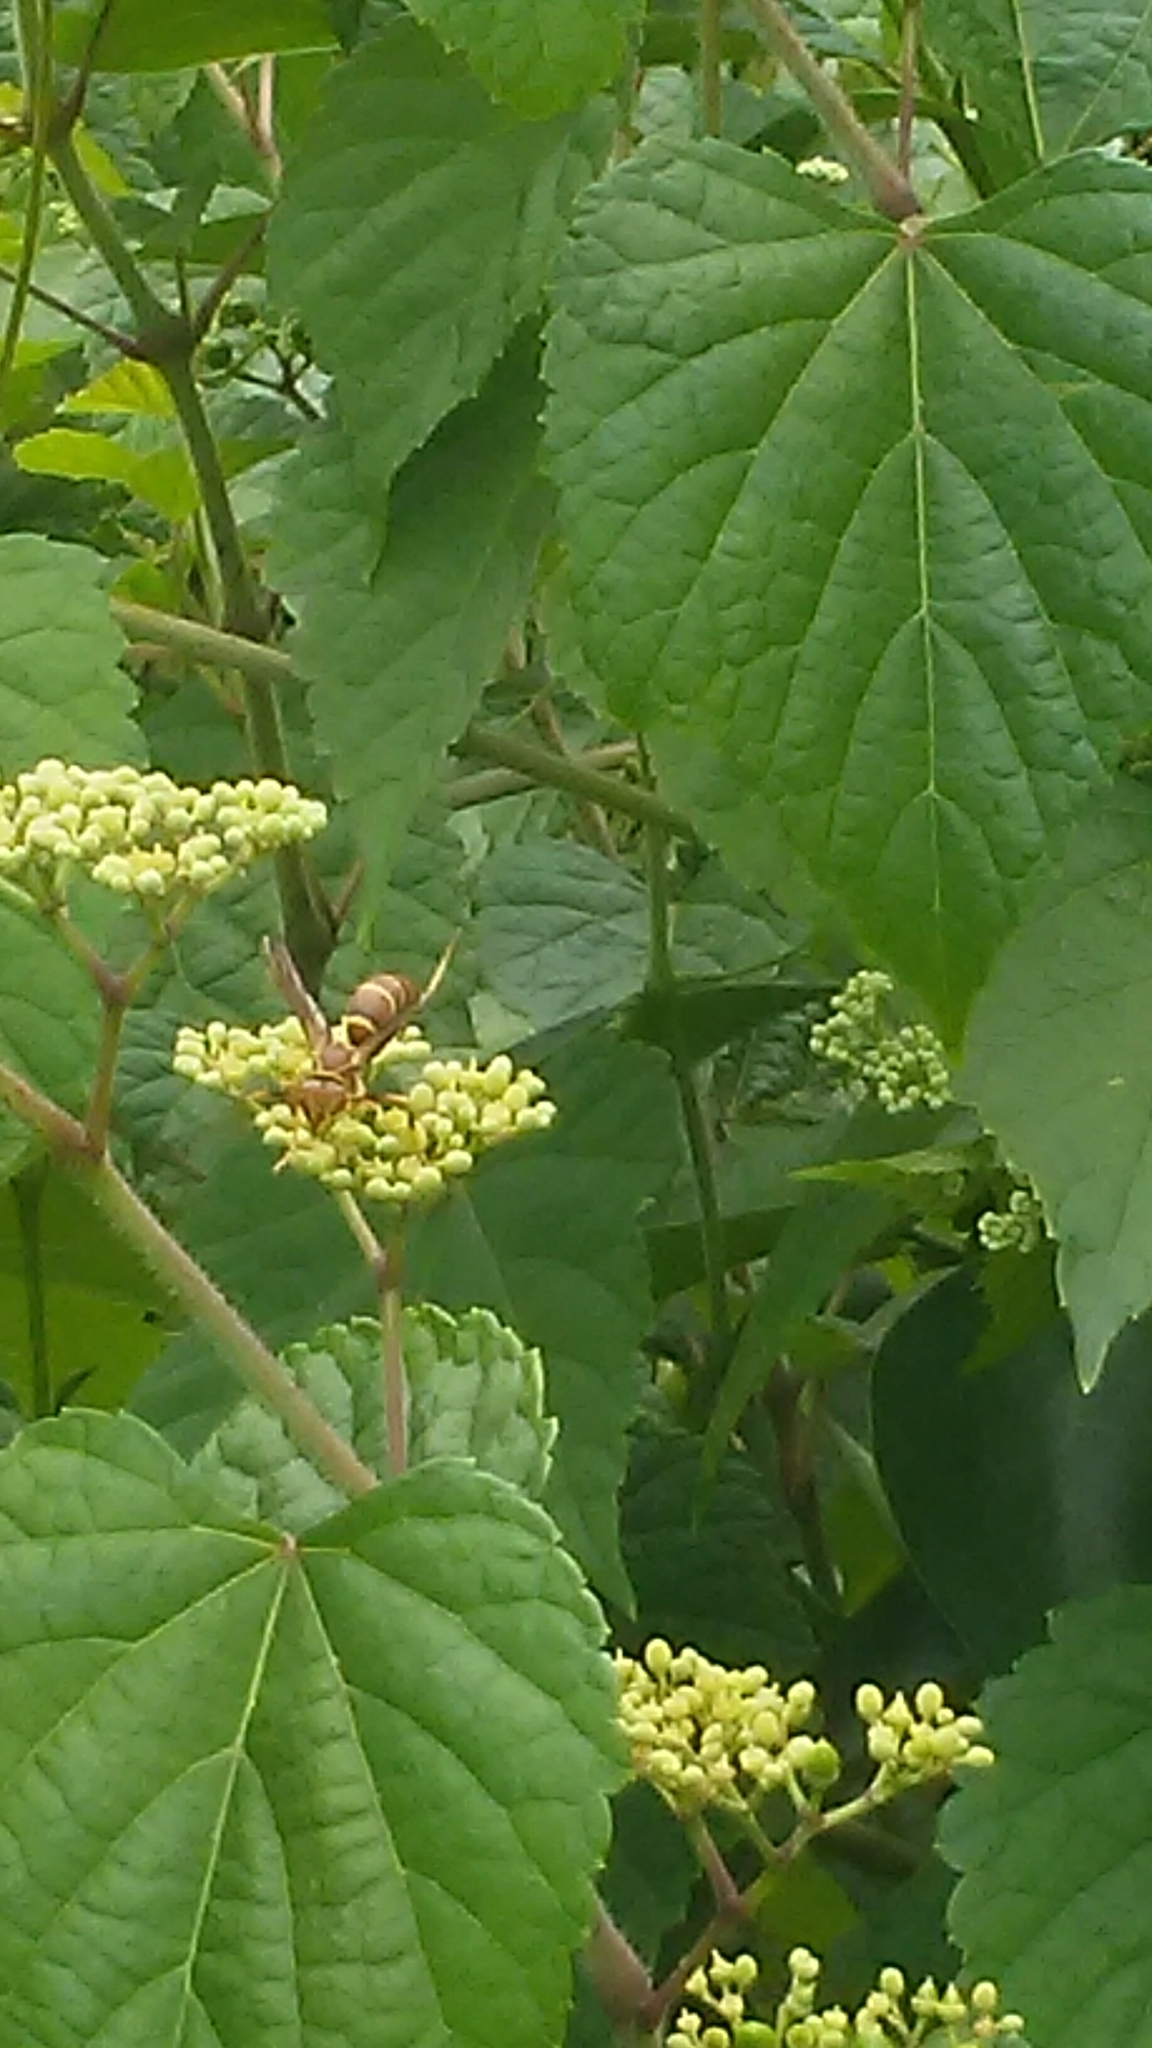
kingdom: Animalia
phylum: Arthropoda
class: Insecta
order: Hymenoptera
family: Vespidae
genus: Fuscopolistes
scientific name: Fuscopolistes
